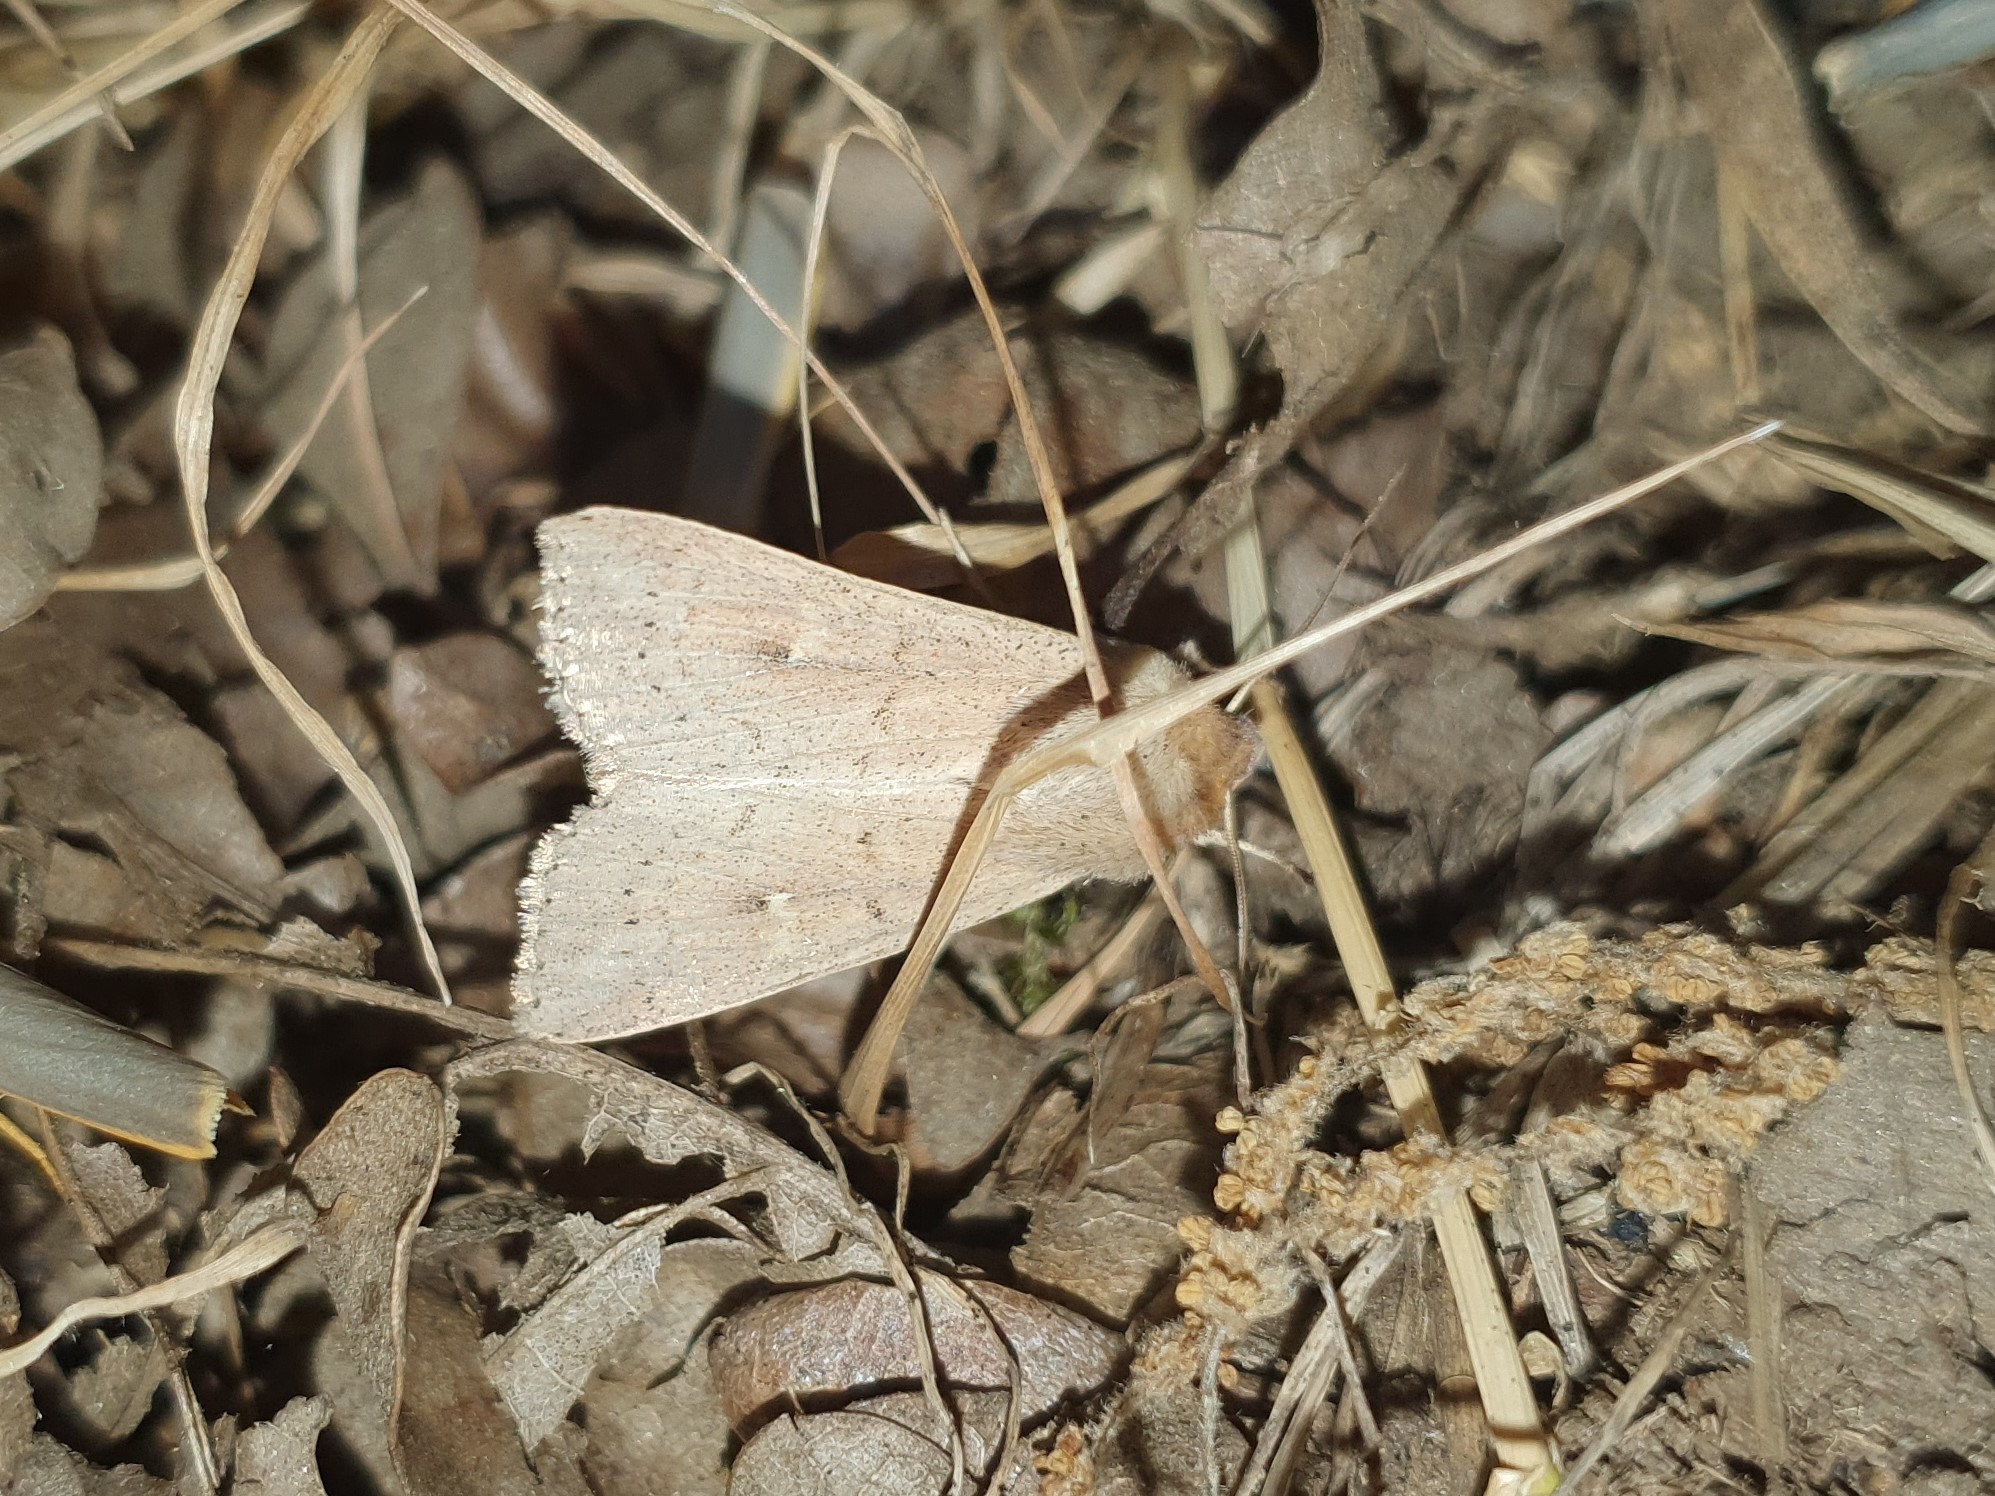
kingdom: Animalia
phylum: Arthropoda
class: Insecta
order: Lepidoptera
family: Noctuidae
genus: Mythimna
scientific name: Mythimna ferrago
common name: Clay
